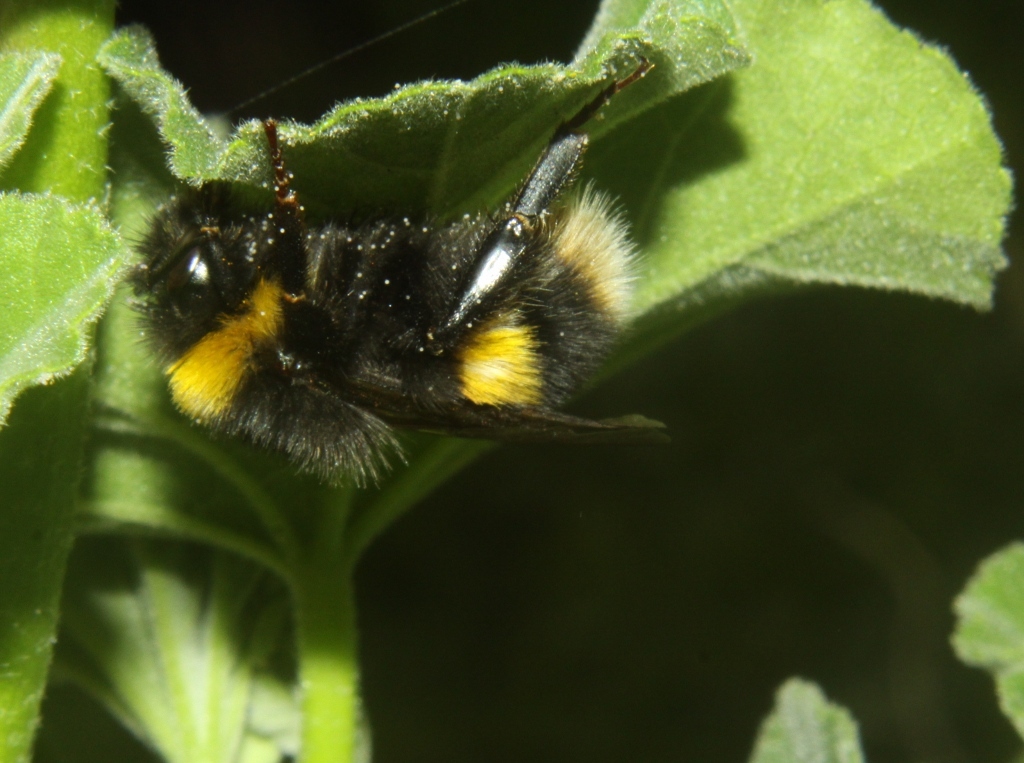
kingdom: Animalia
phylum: Arthropoda
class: Insecta
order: Hymenoptera
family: Apidae
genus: Bombus
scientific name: Bombus terrestris
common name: Buff-tailed bumblebee
